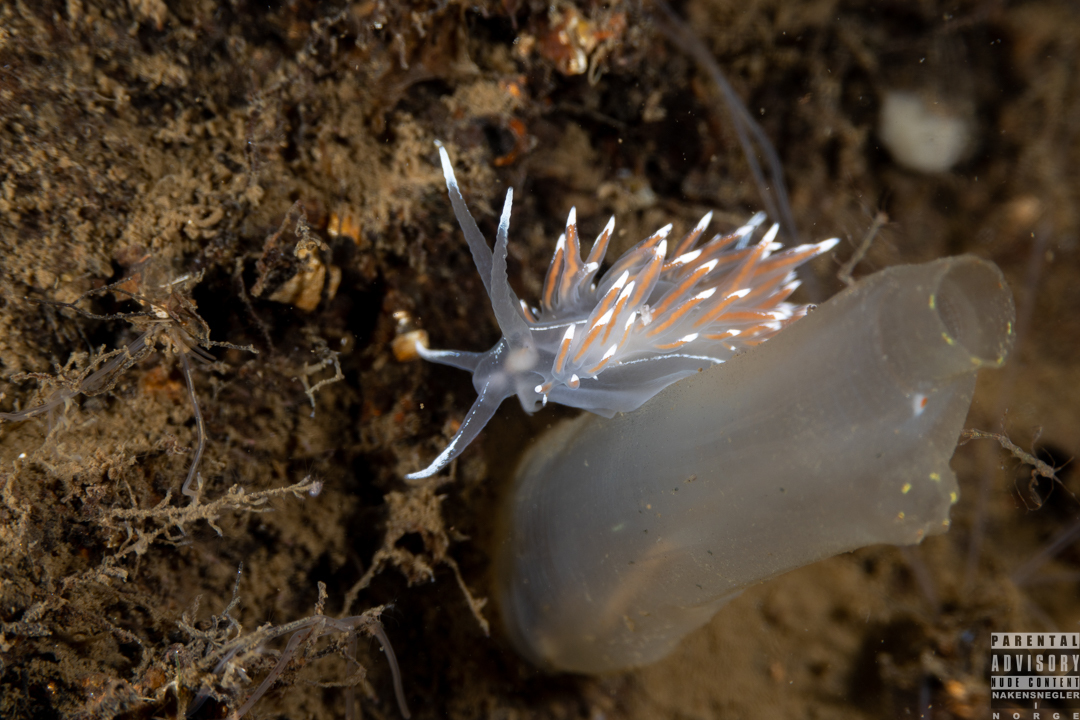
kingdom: Animalia
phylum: Mollusca
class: Gastropoda
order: Nudibranchia
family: Coryphellidae
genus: Coryphella
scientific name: Coryphella lineata
